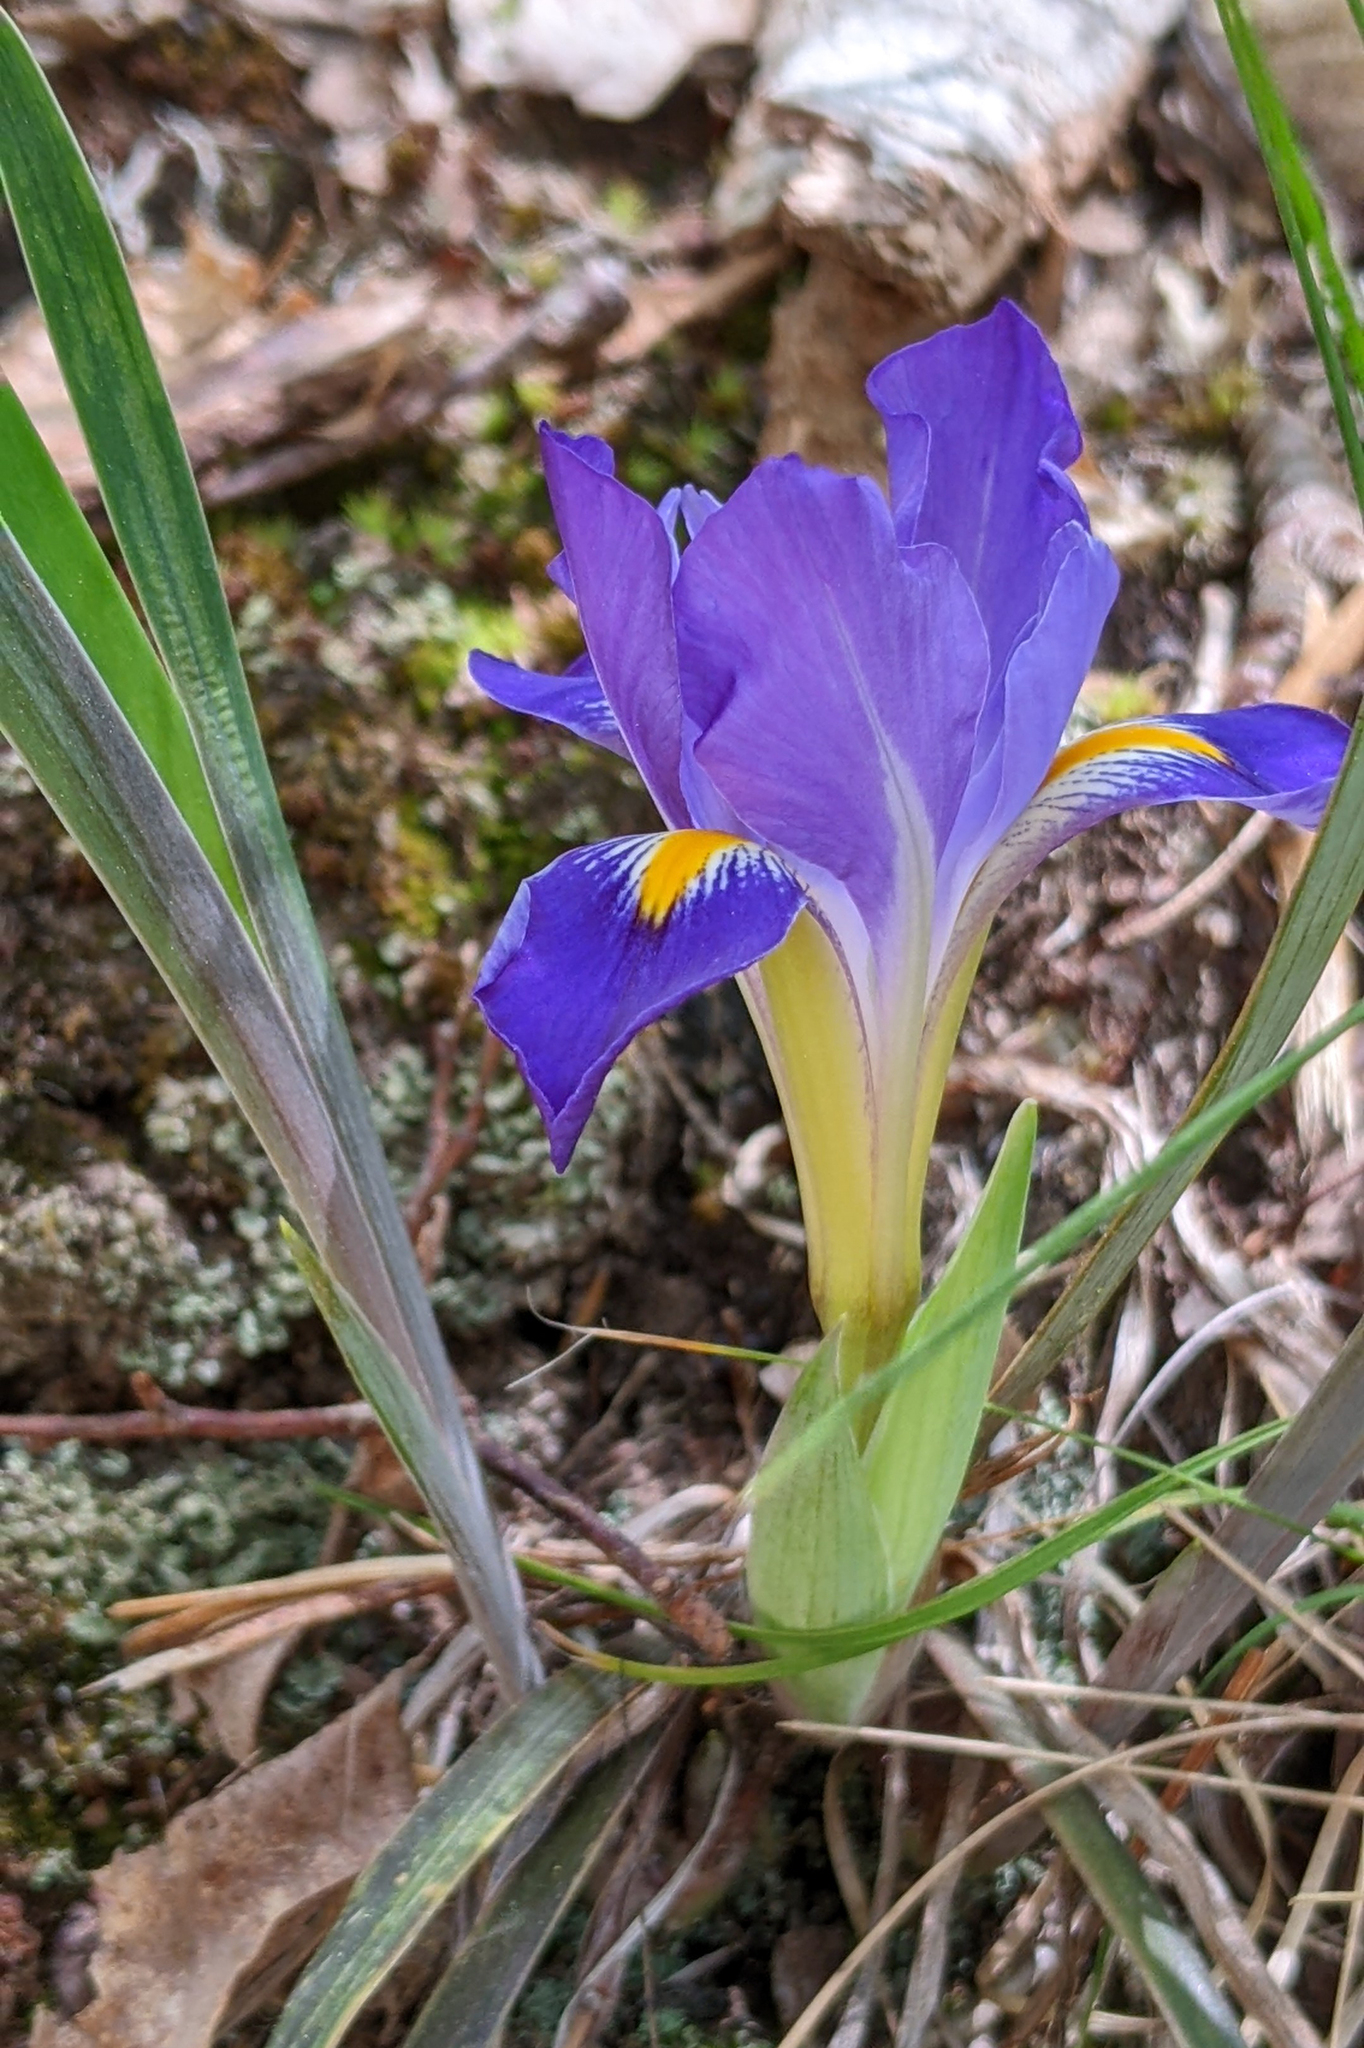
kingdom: Plantae
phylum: Tracheophyta
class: Liliopsida
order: Asparagales
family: Iridaceae
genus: Iris
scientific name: Iris verna
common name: Dwarf iris
